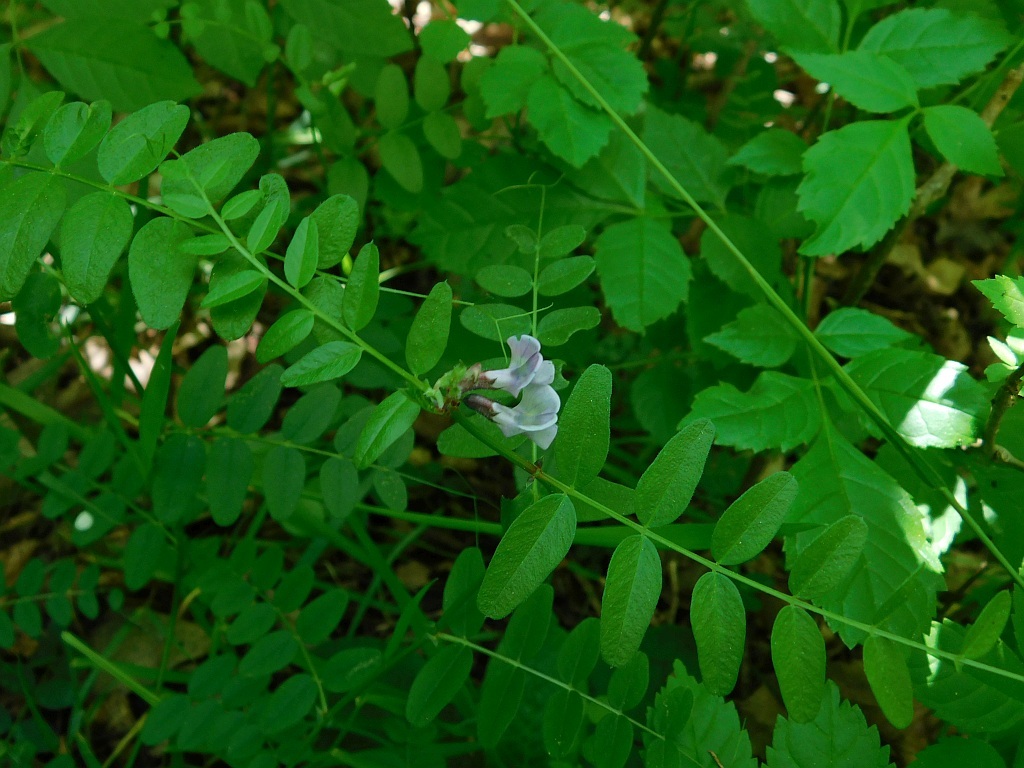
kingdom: Plantae
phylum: Tracheophyta
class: Magnoliopsida
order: Fabales
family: Fabaceae
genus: Vicia
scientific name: Vicia sepium
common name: Bush vetch
